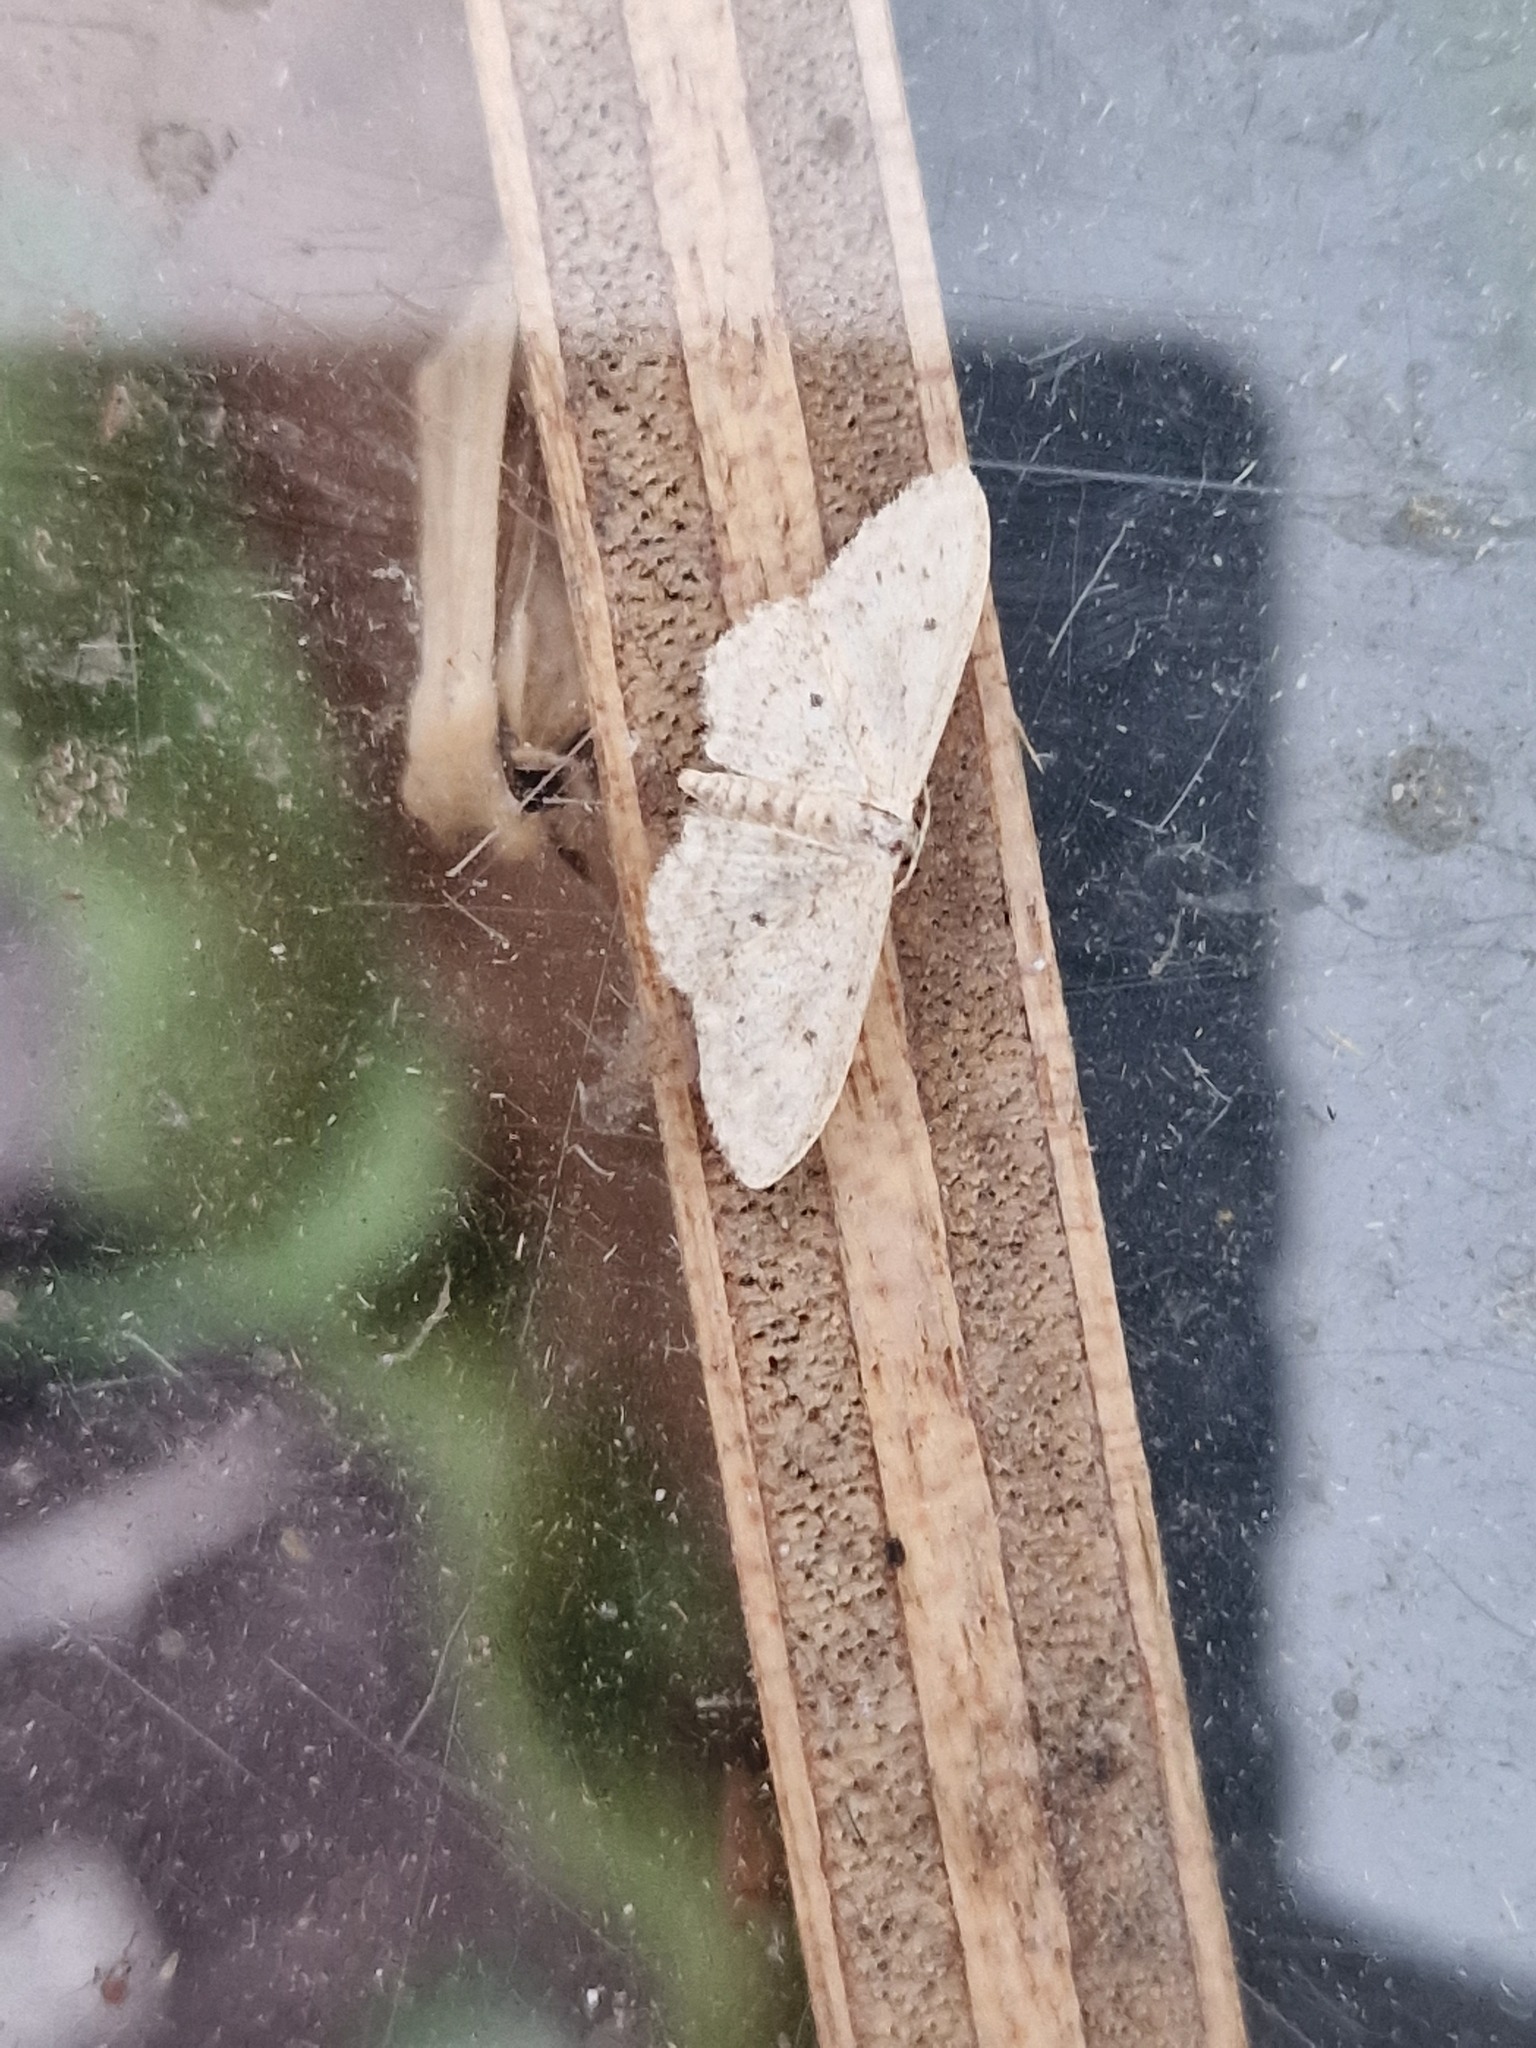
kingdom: Animalia
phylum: Arthropoda
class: Insecta
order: Lepidoptera
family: Geometridae
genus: Idaea
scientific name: Idaea seriata
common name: Small dusty wave
